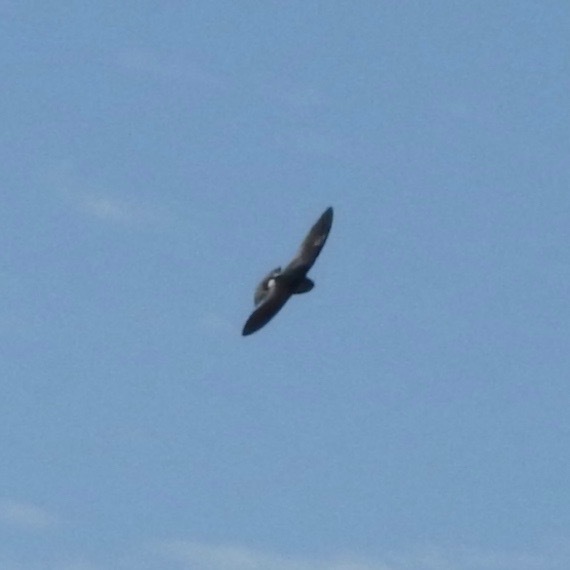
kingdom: Animalia
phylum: Chordata
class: Aves
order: Passeriformes
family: Hirundinidae
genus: Tachycineta
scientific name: Tachycineta thalassina
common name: Violet-green swallow
